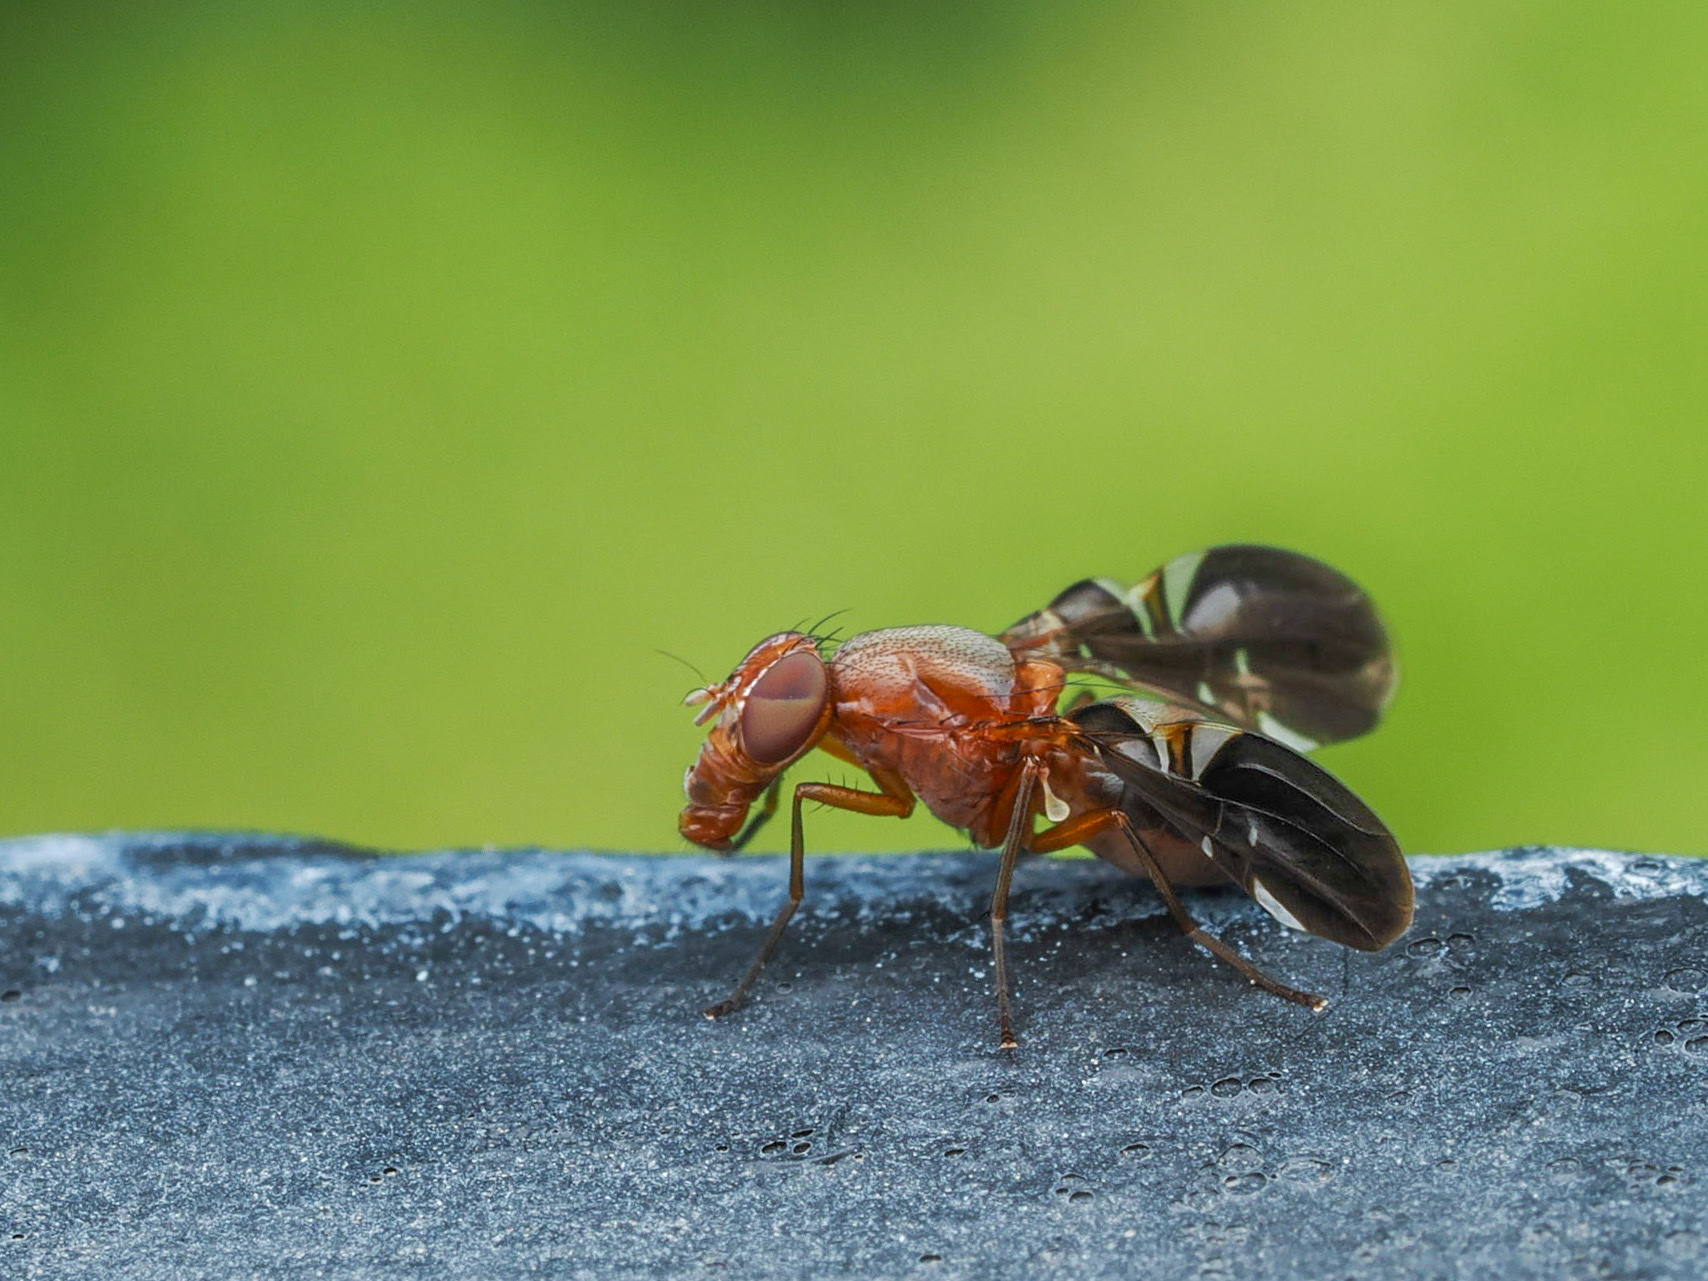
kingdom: Animalia
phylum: Arthropoda
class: Insecta
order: Diptera
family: Ulidiidae
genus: Delphinia
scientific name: Delphinia picta
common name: Common picture-winged fly
